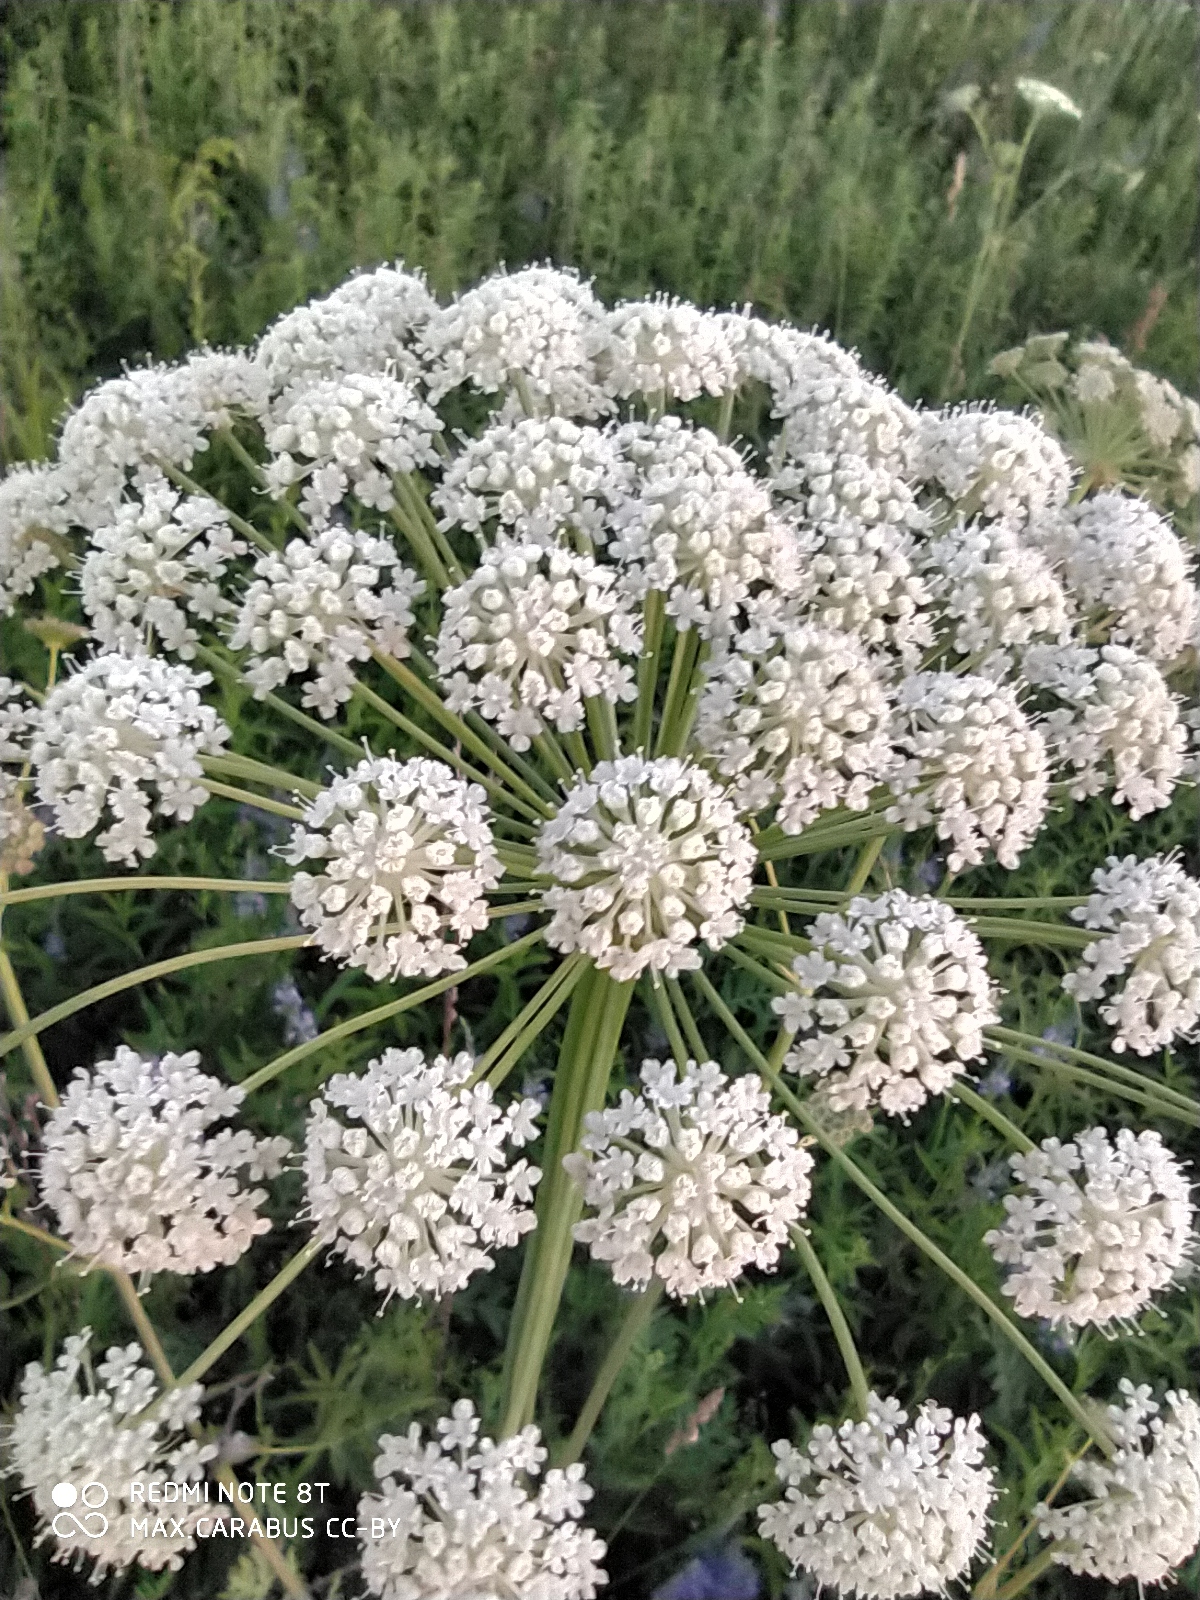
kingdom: Plantae
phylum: Tracheophyta
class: Magnoliopsida
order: Apiales
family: Apiaceae
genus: Seseli
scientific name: Seseli libanotis
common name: Mooncarrot
